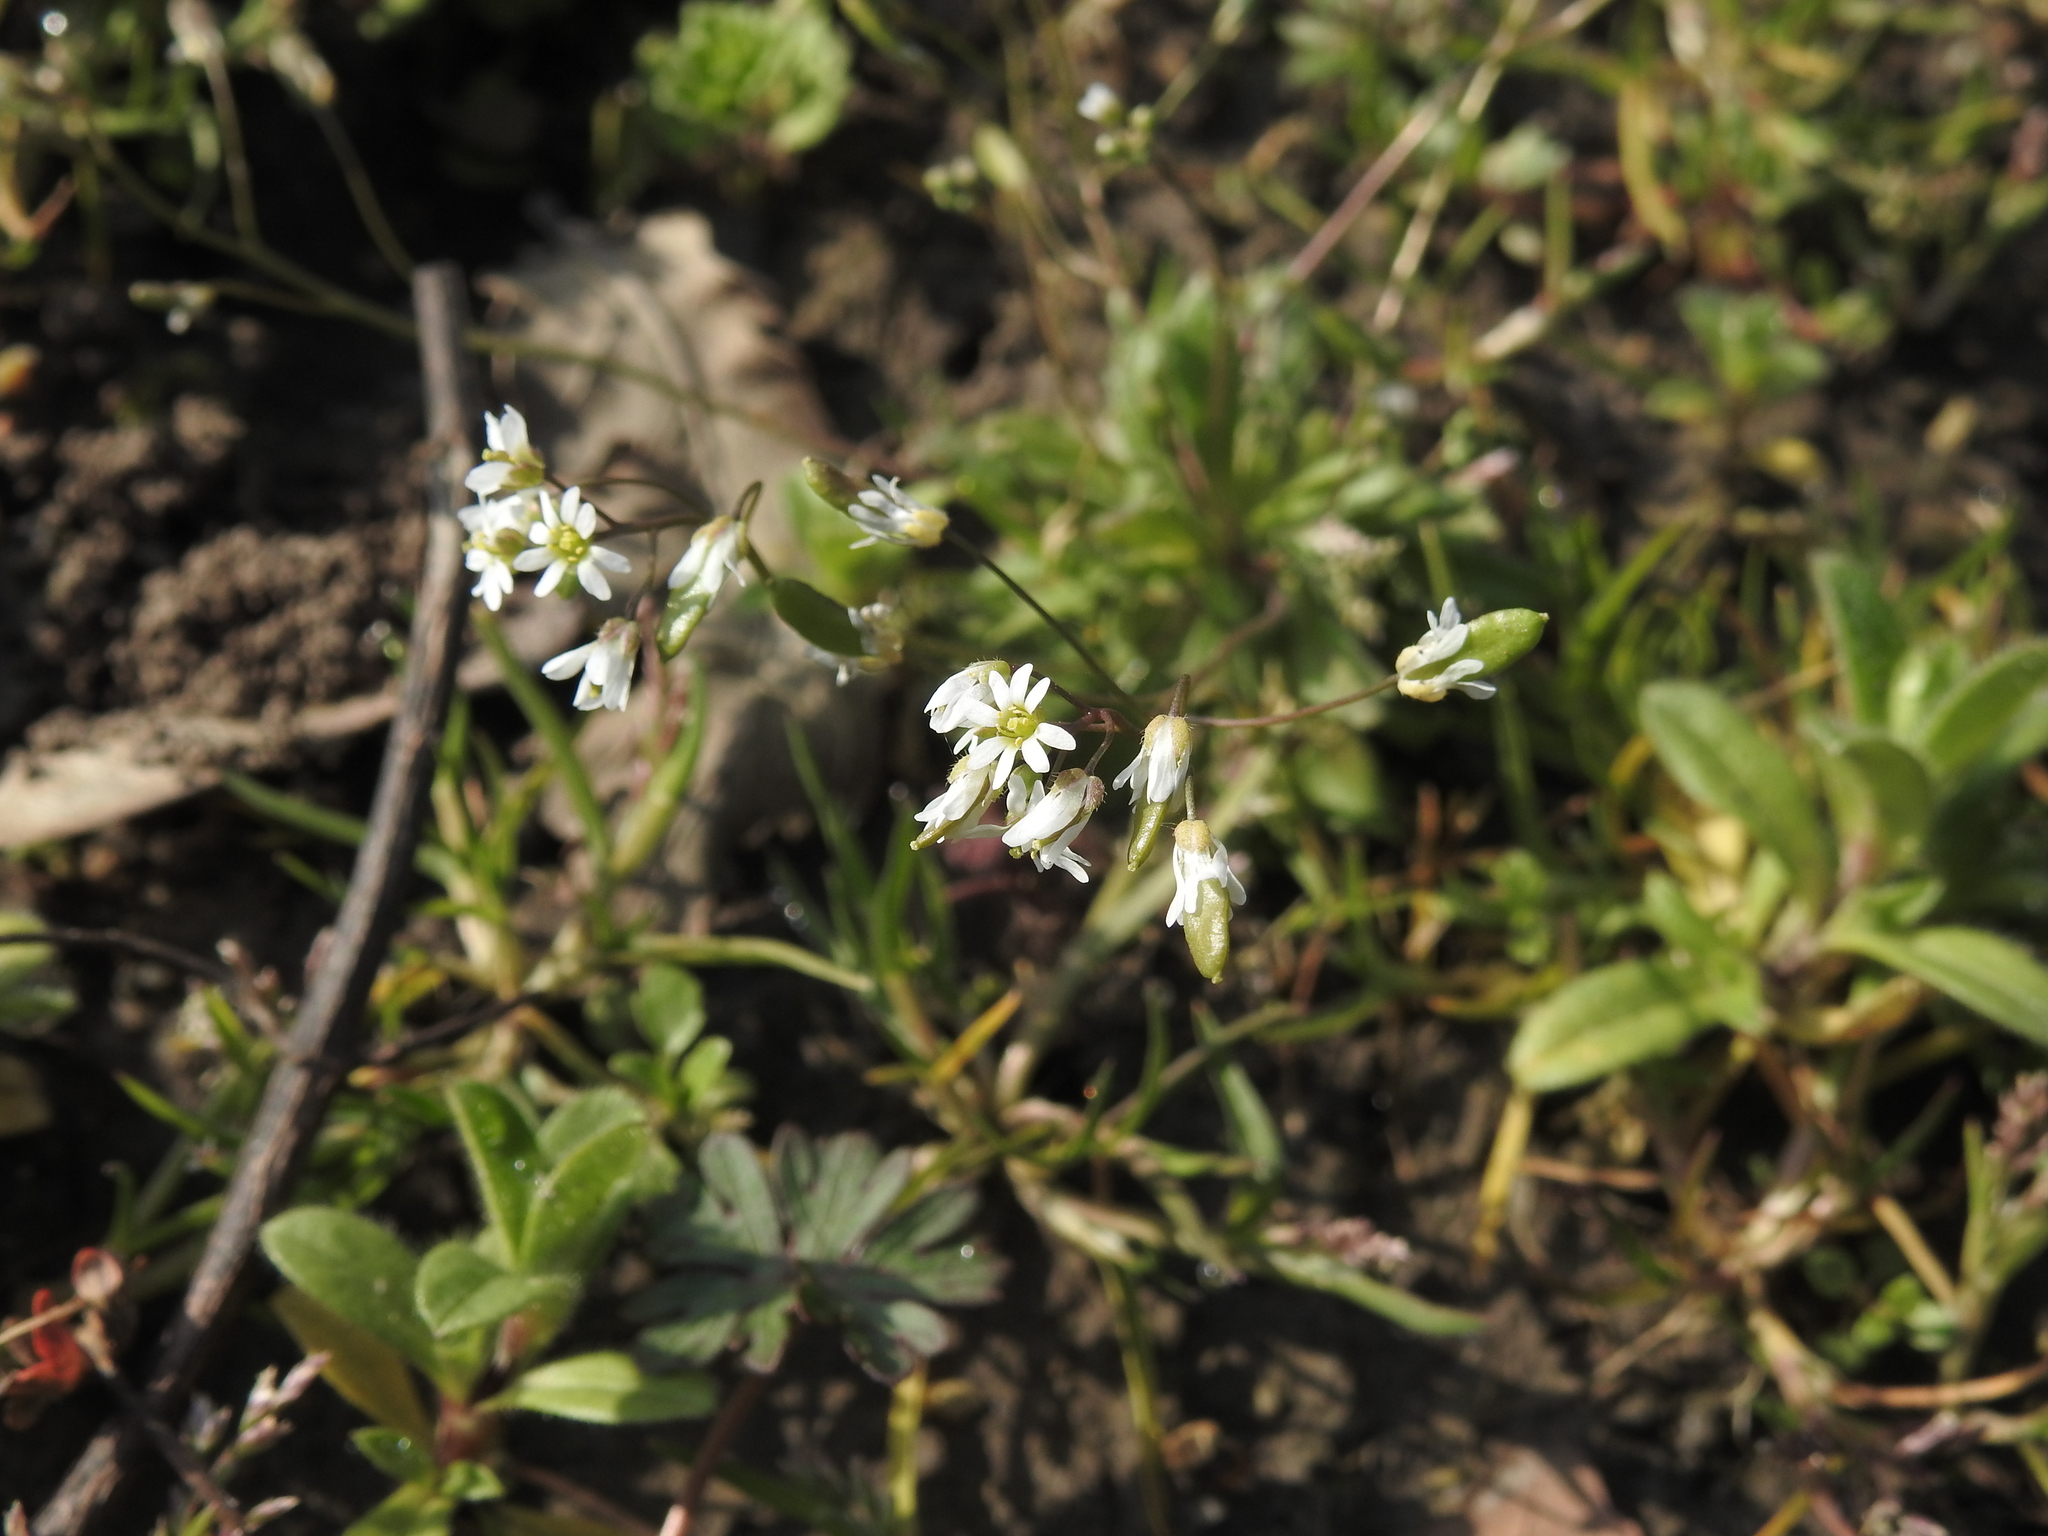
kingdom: Plantae
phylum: Tracheophyta
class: Magnoliopsida
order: Brassicales
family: Brassicaceae
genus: Draba
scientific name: Draba verna
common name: Spring draba
